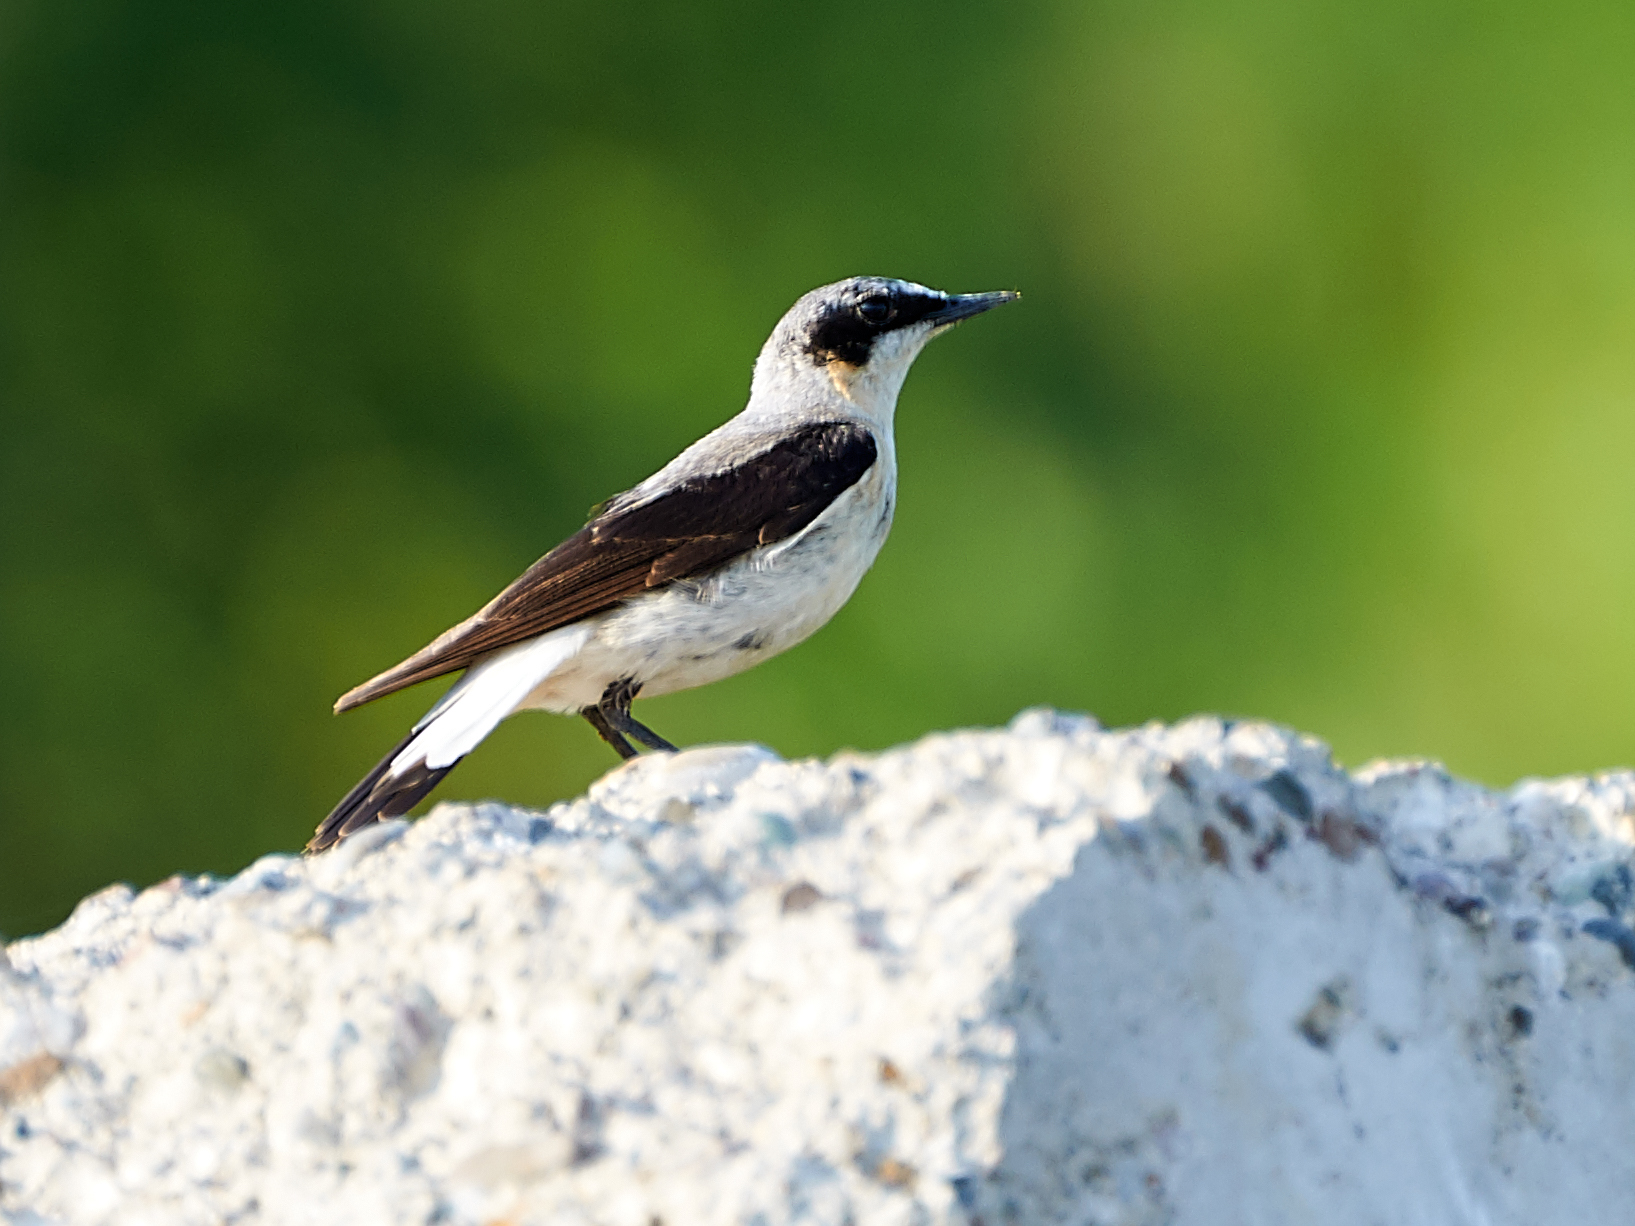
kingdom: Animalia
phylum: Chordata
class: Aves
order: Passeriformes
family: Muscicapidae
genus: Oenanthe
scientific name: Oenanthe oenanthe
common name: Northern wheatear
